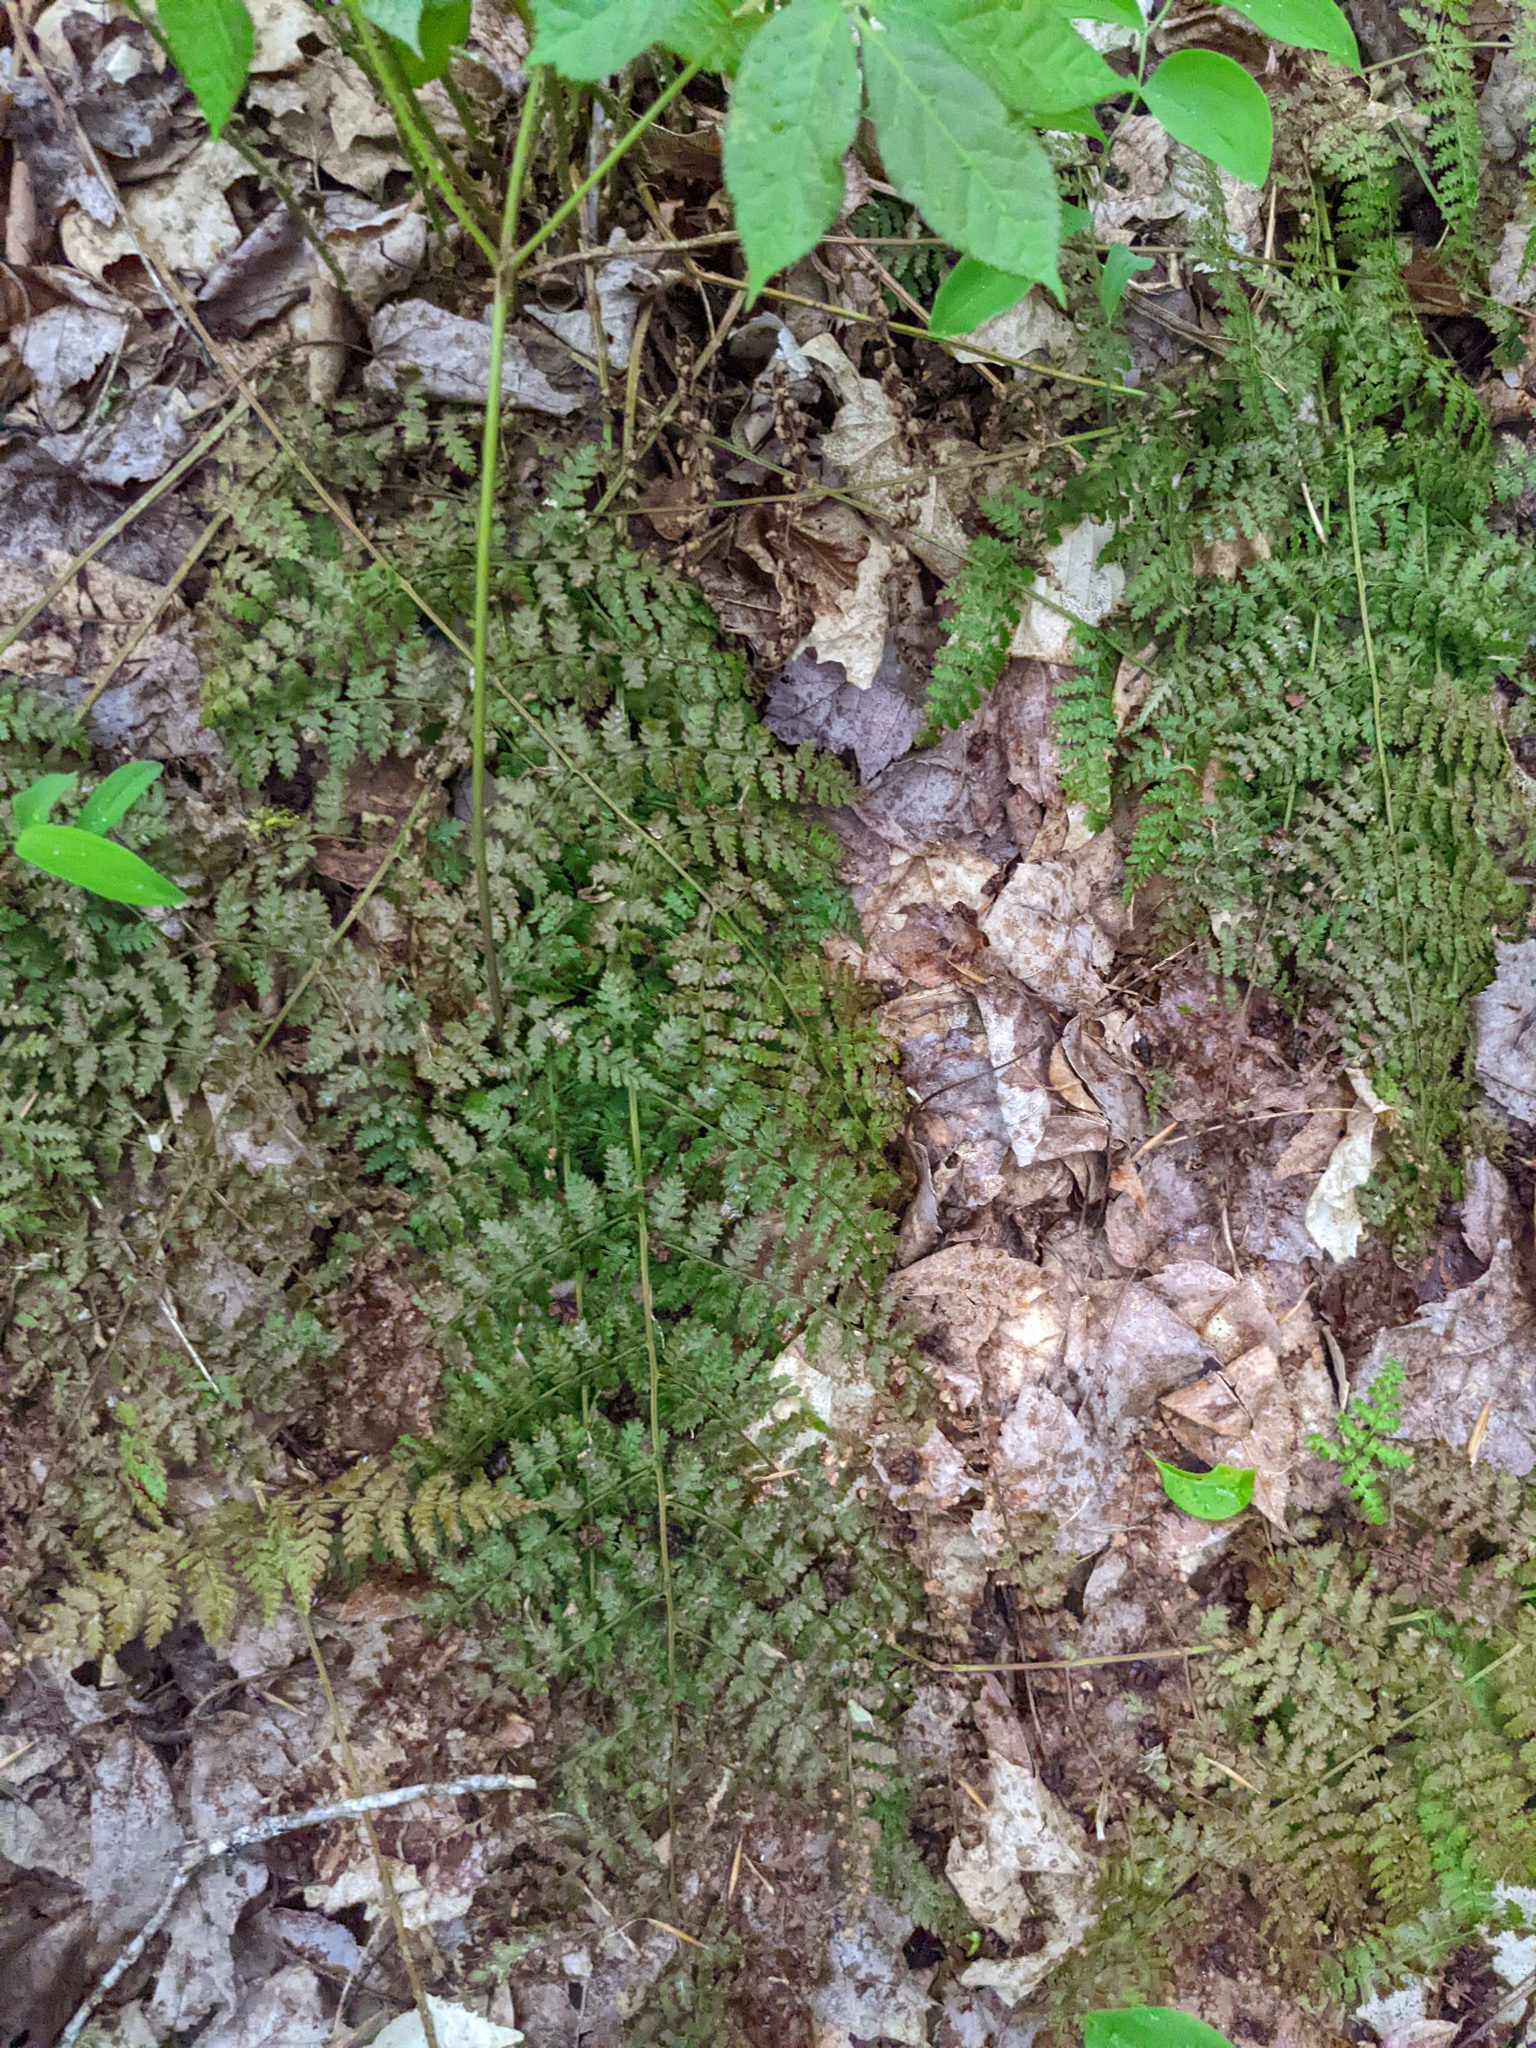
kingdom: Plantae
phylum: Tracheophyta
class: Polypodiopsida
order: Polypodiales
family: Dryopteridaceae
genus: Dryopteris
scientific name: Dryopteris intermedia
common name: Evergreen wood fern
